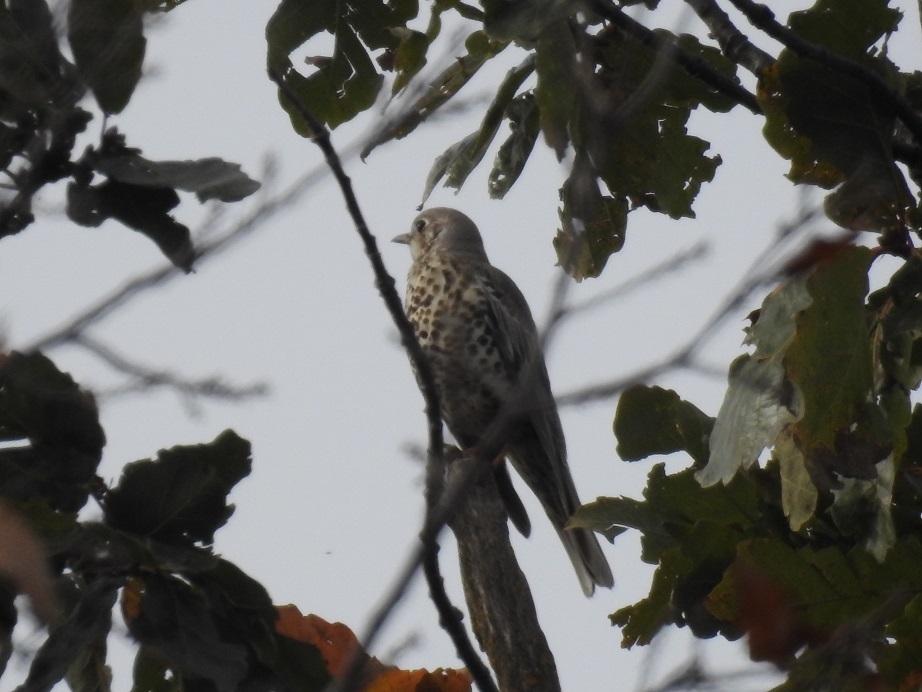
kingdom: Animalia
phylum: Chordata
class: Aves
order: Passeriformes
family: Turdidae
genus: Turdus
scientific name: Turdus viscivorus
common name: Mistle thrush
